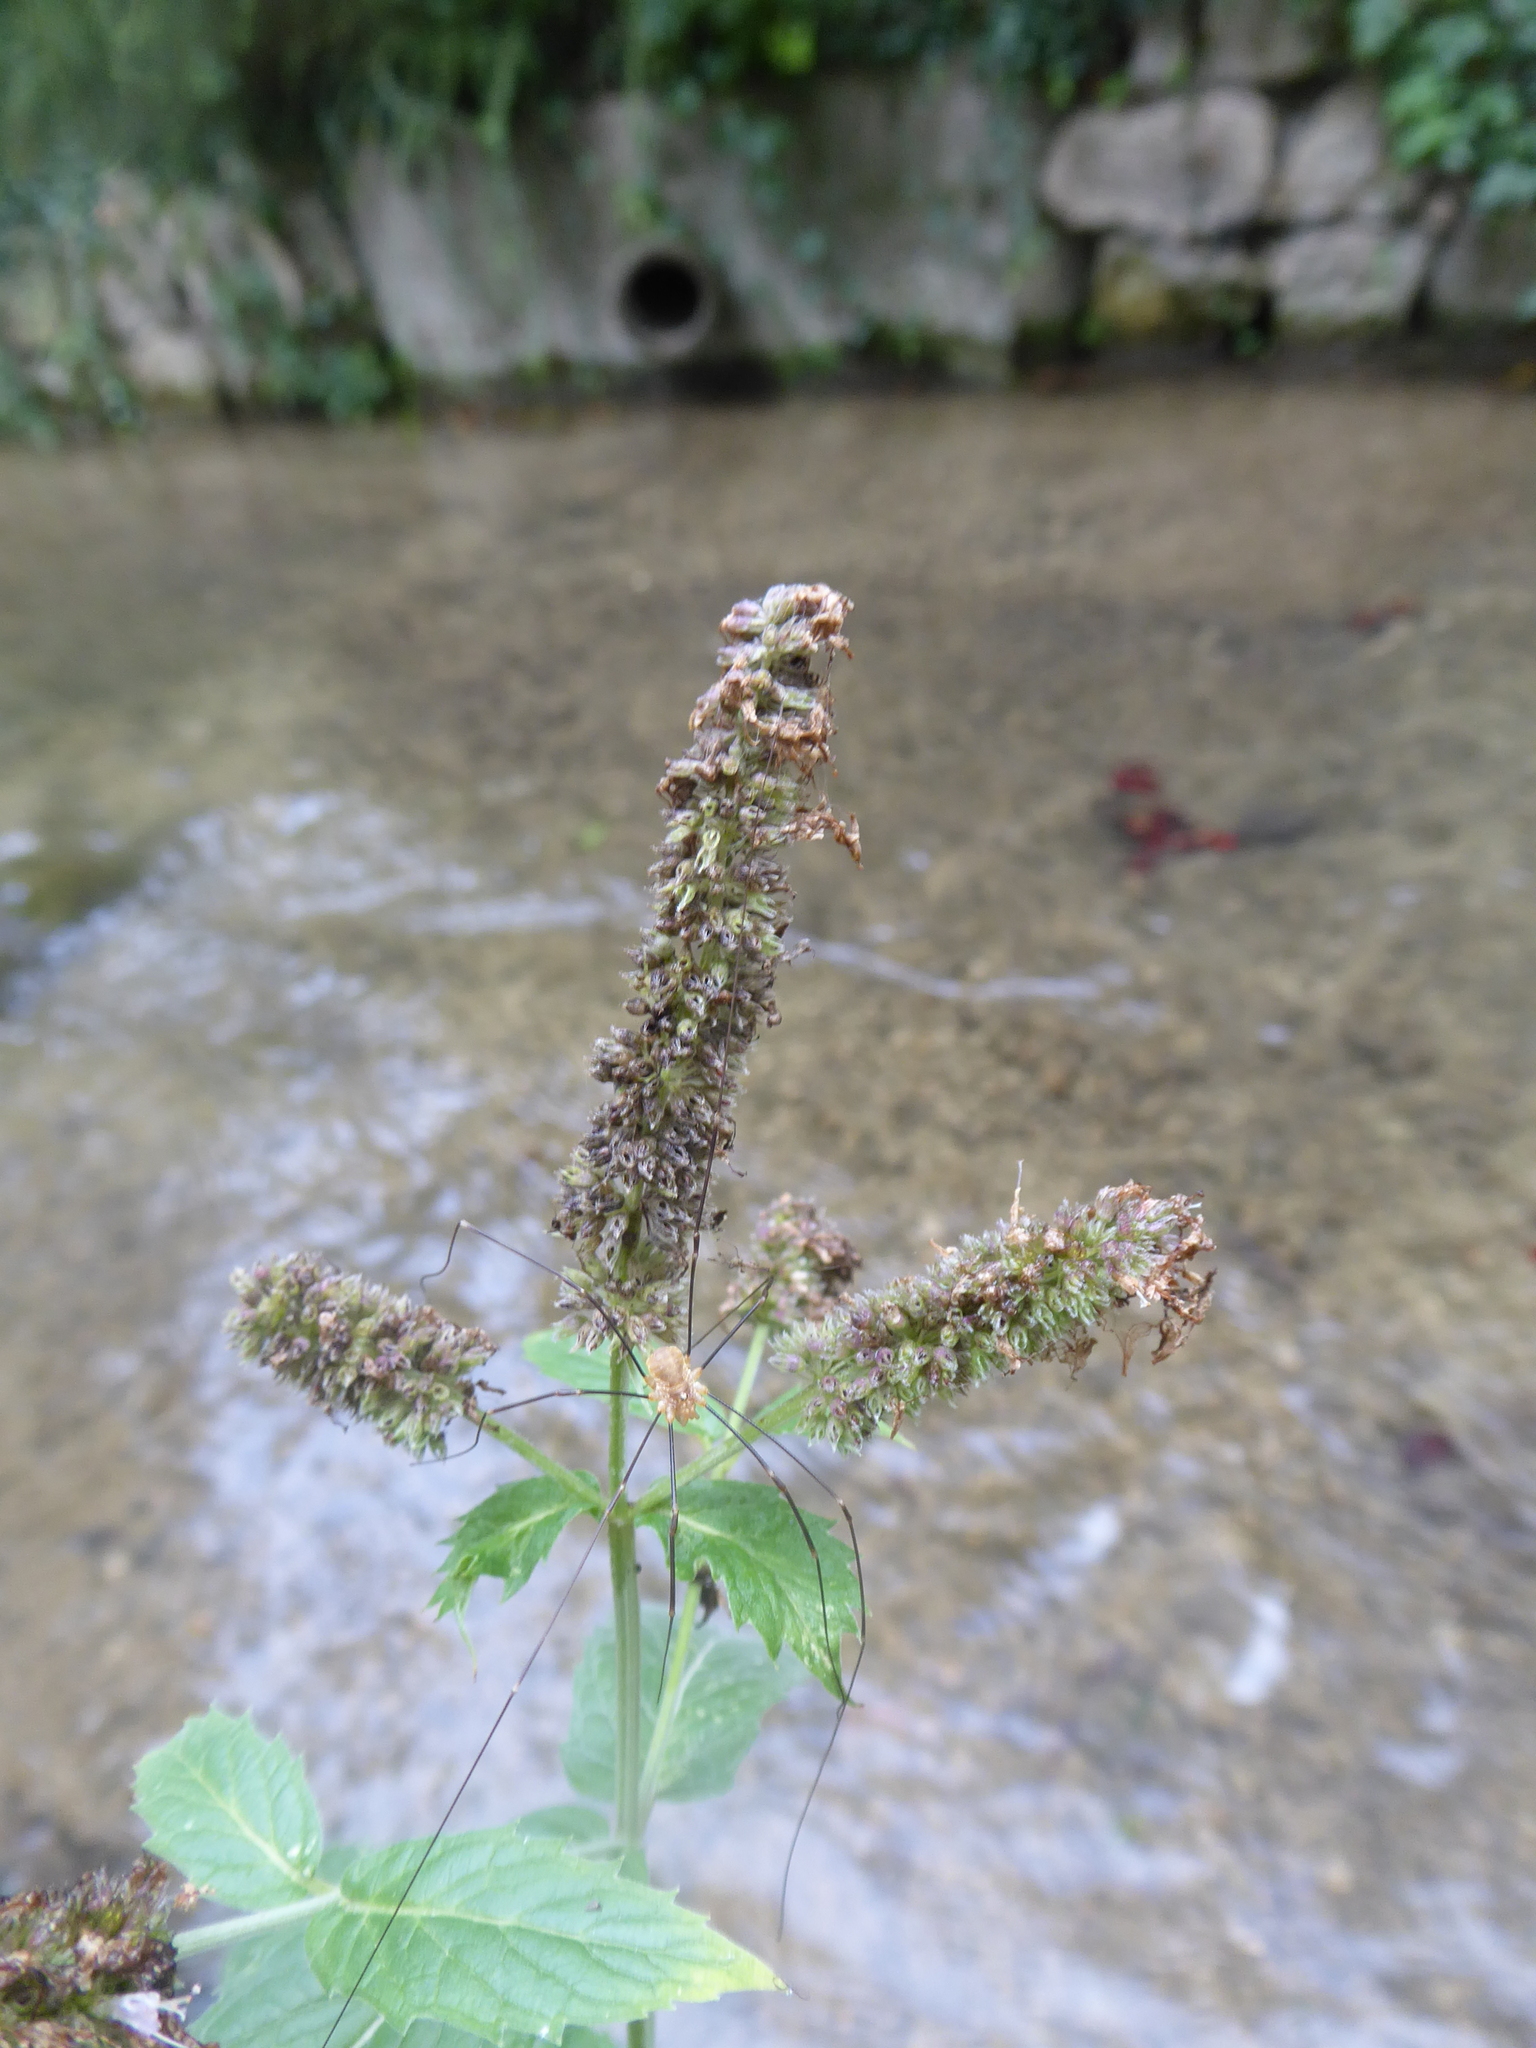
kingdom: Plantae
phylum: Tracheophyta
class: Magnoliopsida
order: Lamiales
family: Lamiaceae
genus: Mentha
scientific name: Mentha longifolia
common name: Horse mint
